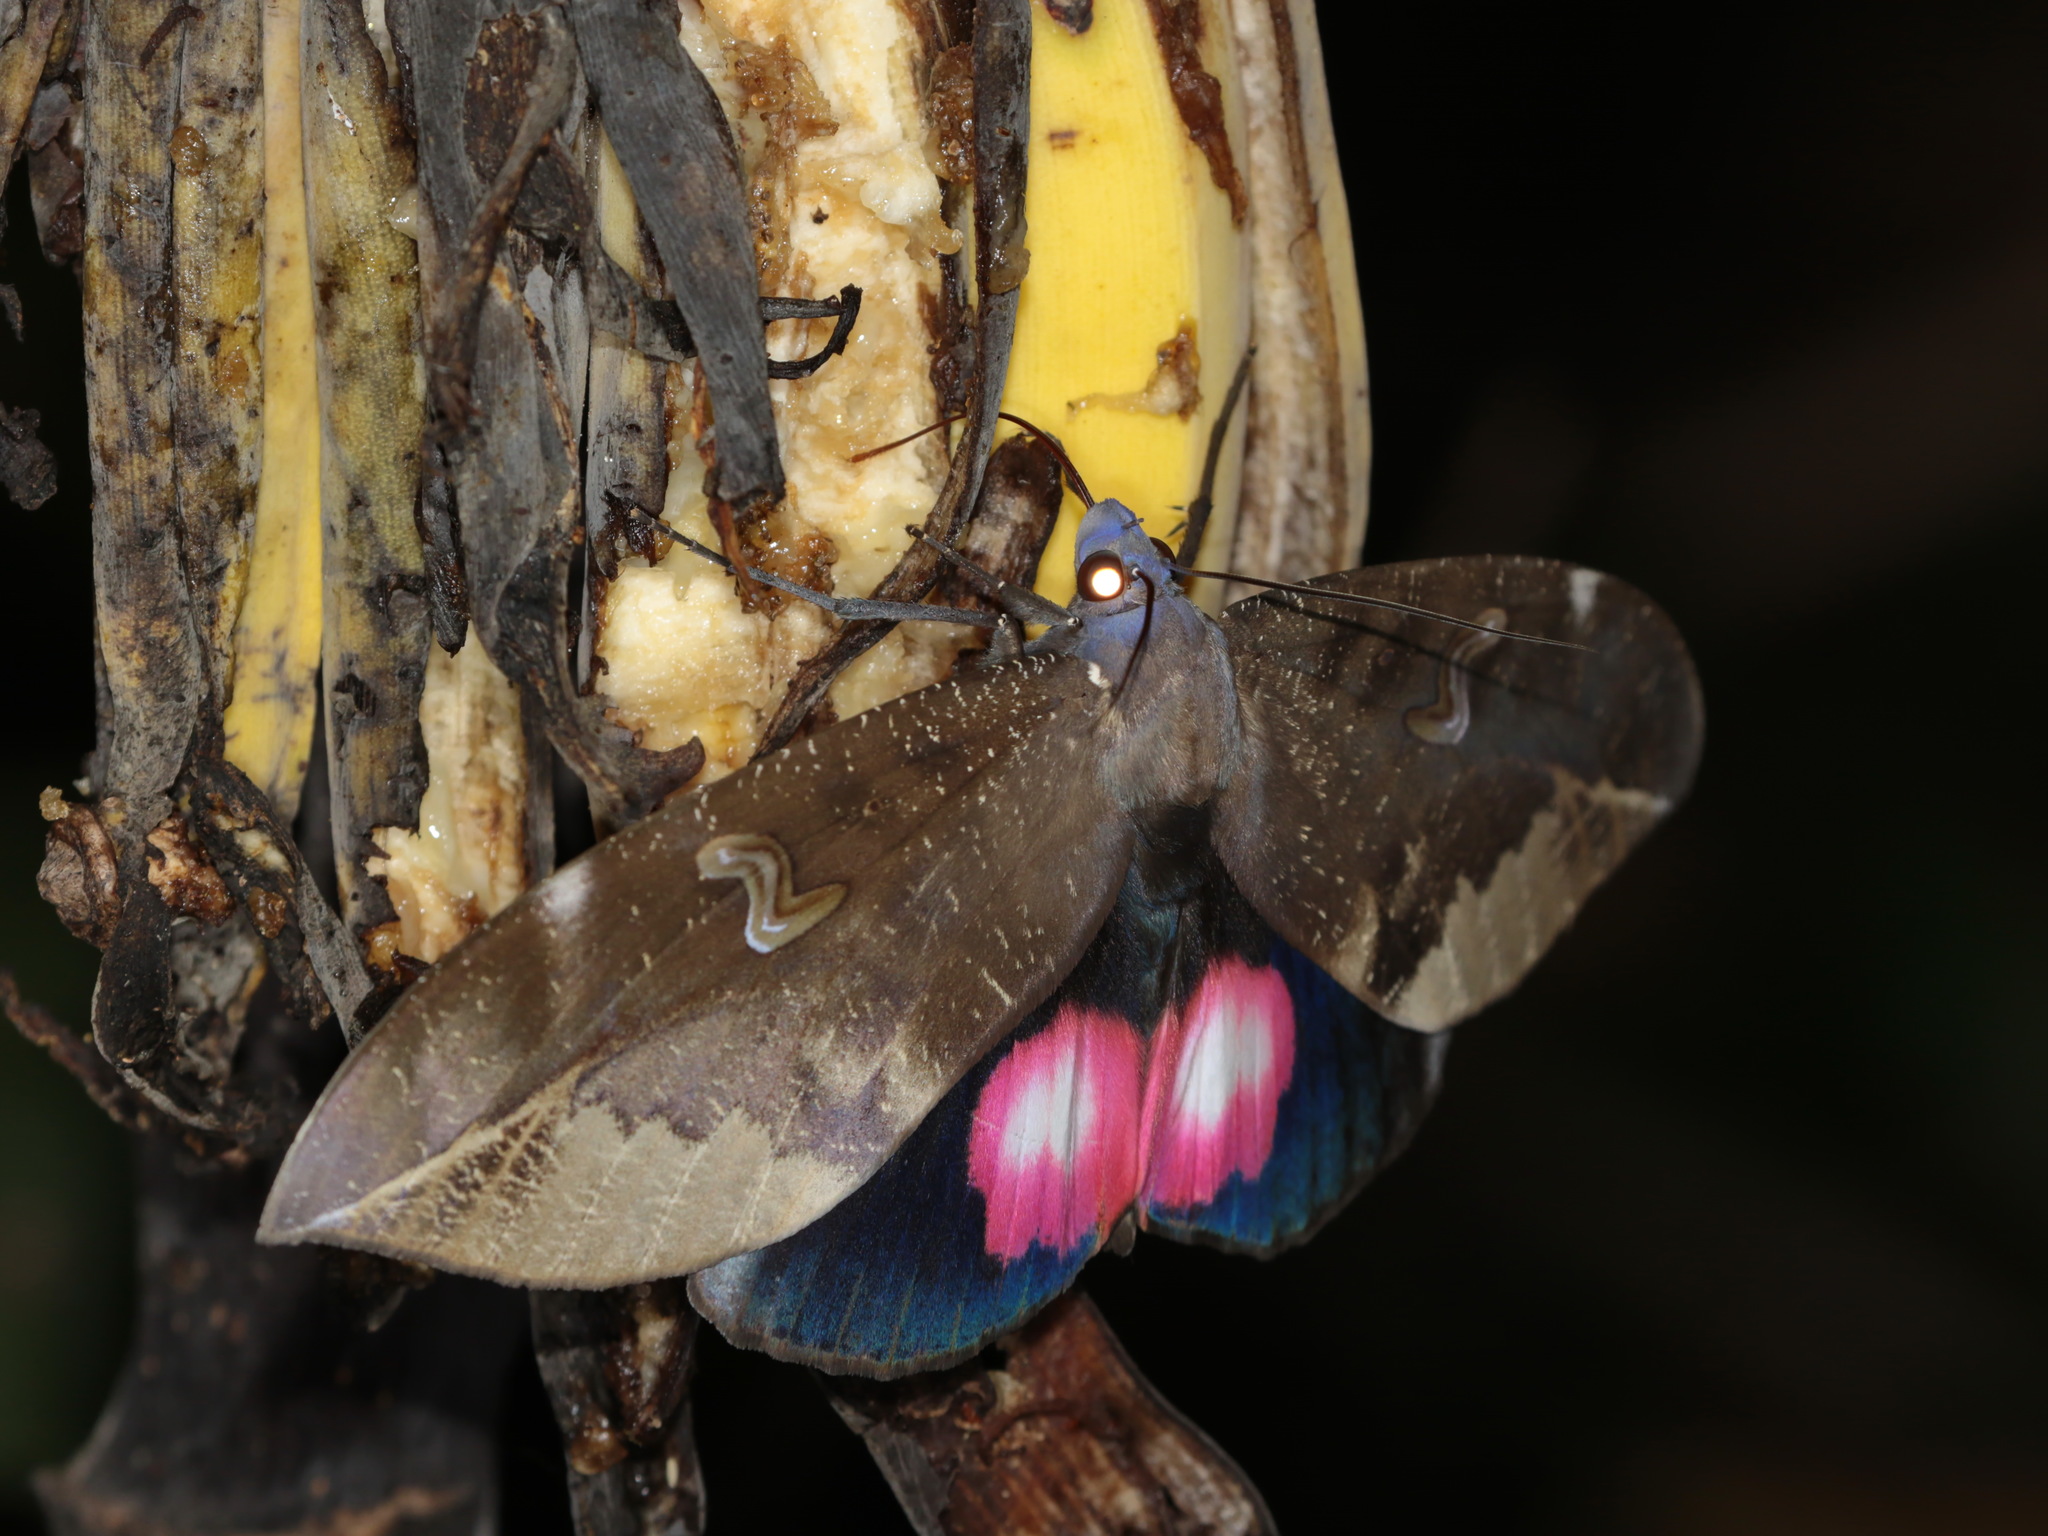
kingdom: Animalia
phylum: Arthropoda
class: Insecta
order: Lepidoptera
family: Erebidae
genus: Phyllodes
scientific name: Phyllodes verhuelli
